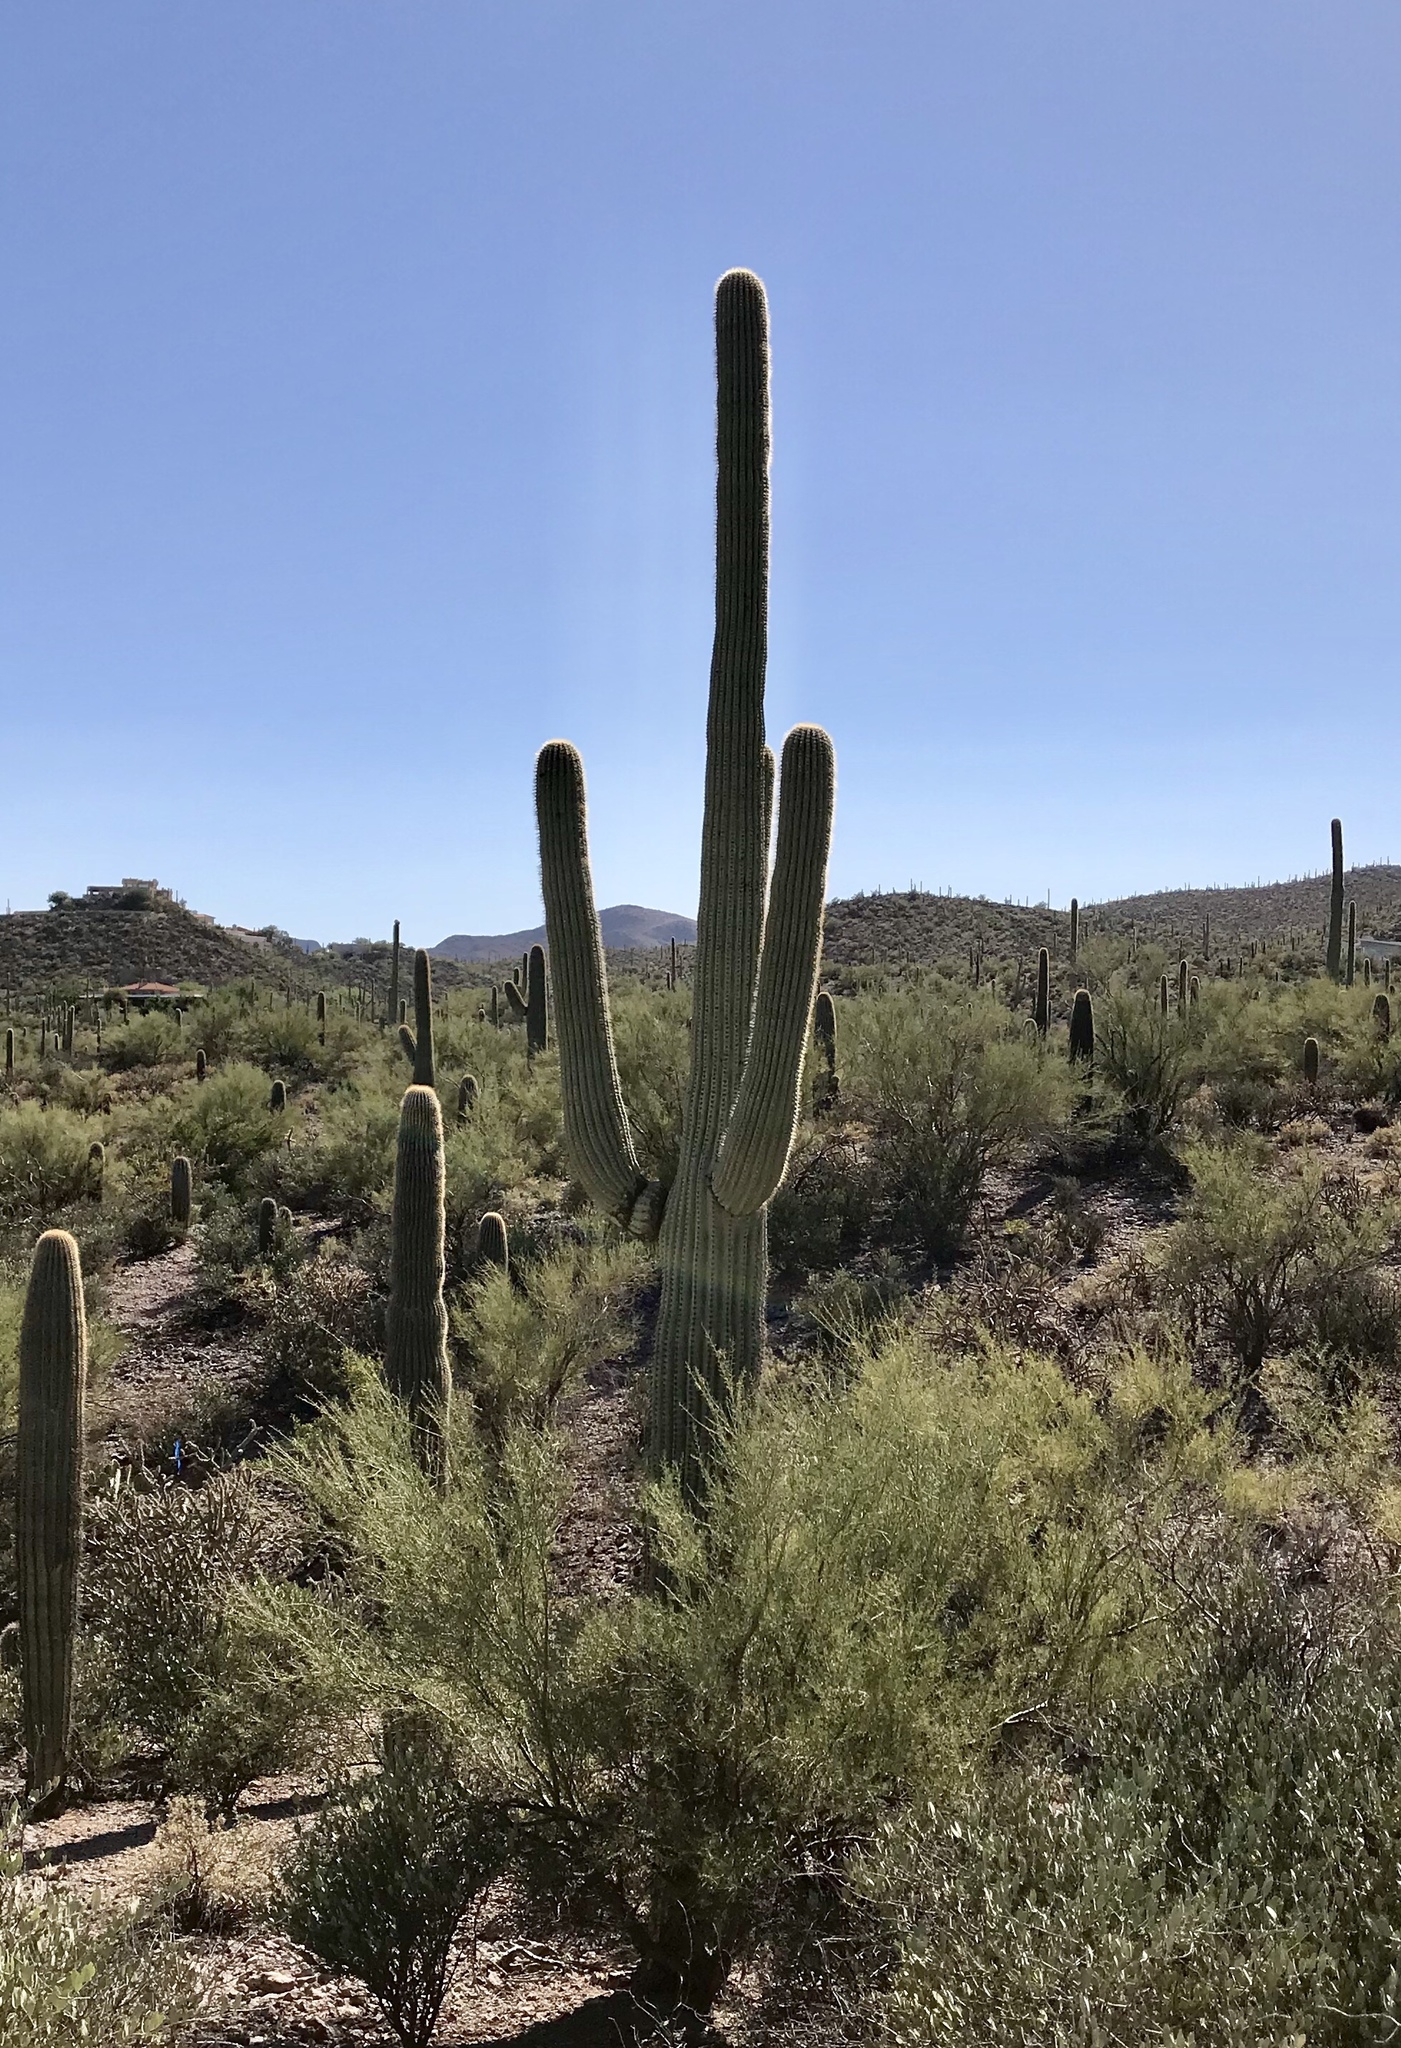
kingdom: Plantae
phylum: Tracheophyta
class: Magnoliopsida
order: Fabales
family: Fabaceae
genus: Parkinsonia
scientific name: Parkinsonia microphylla
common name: Yellow paloverde
